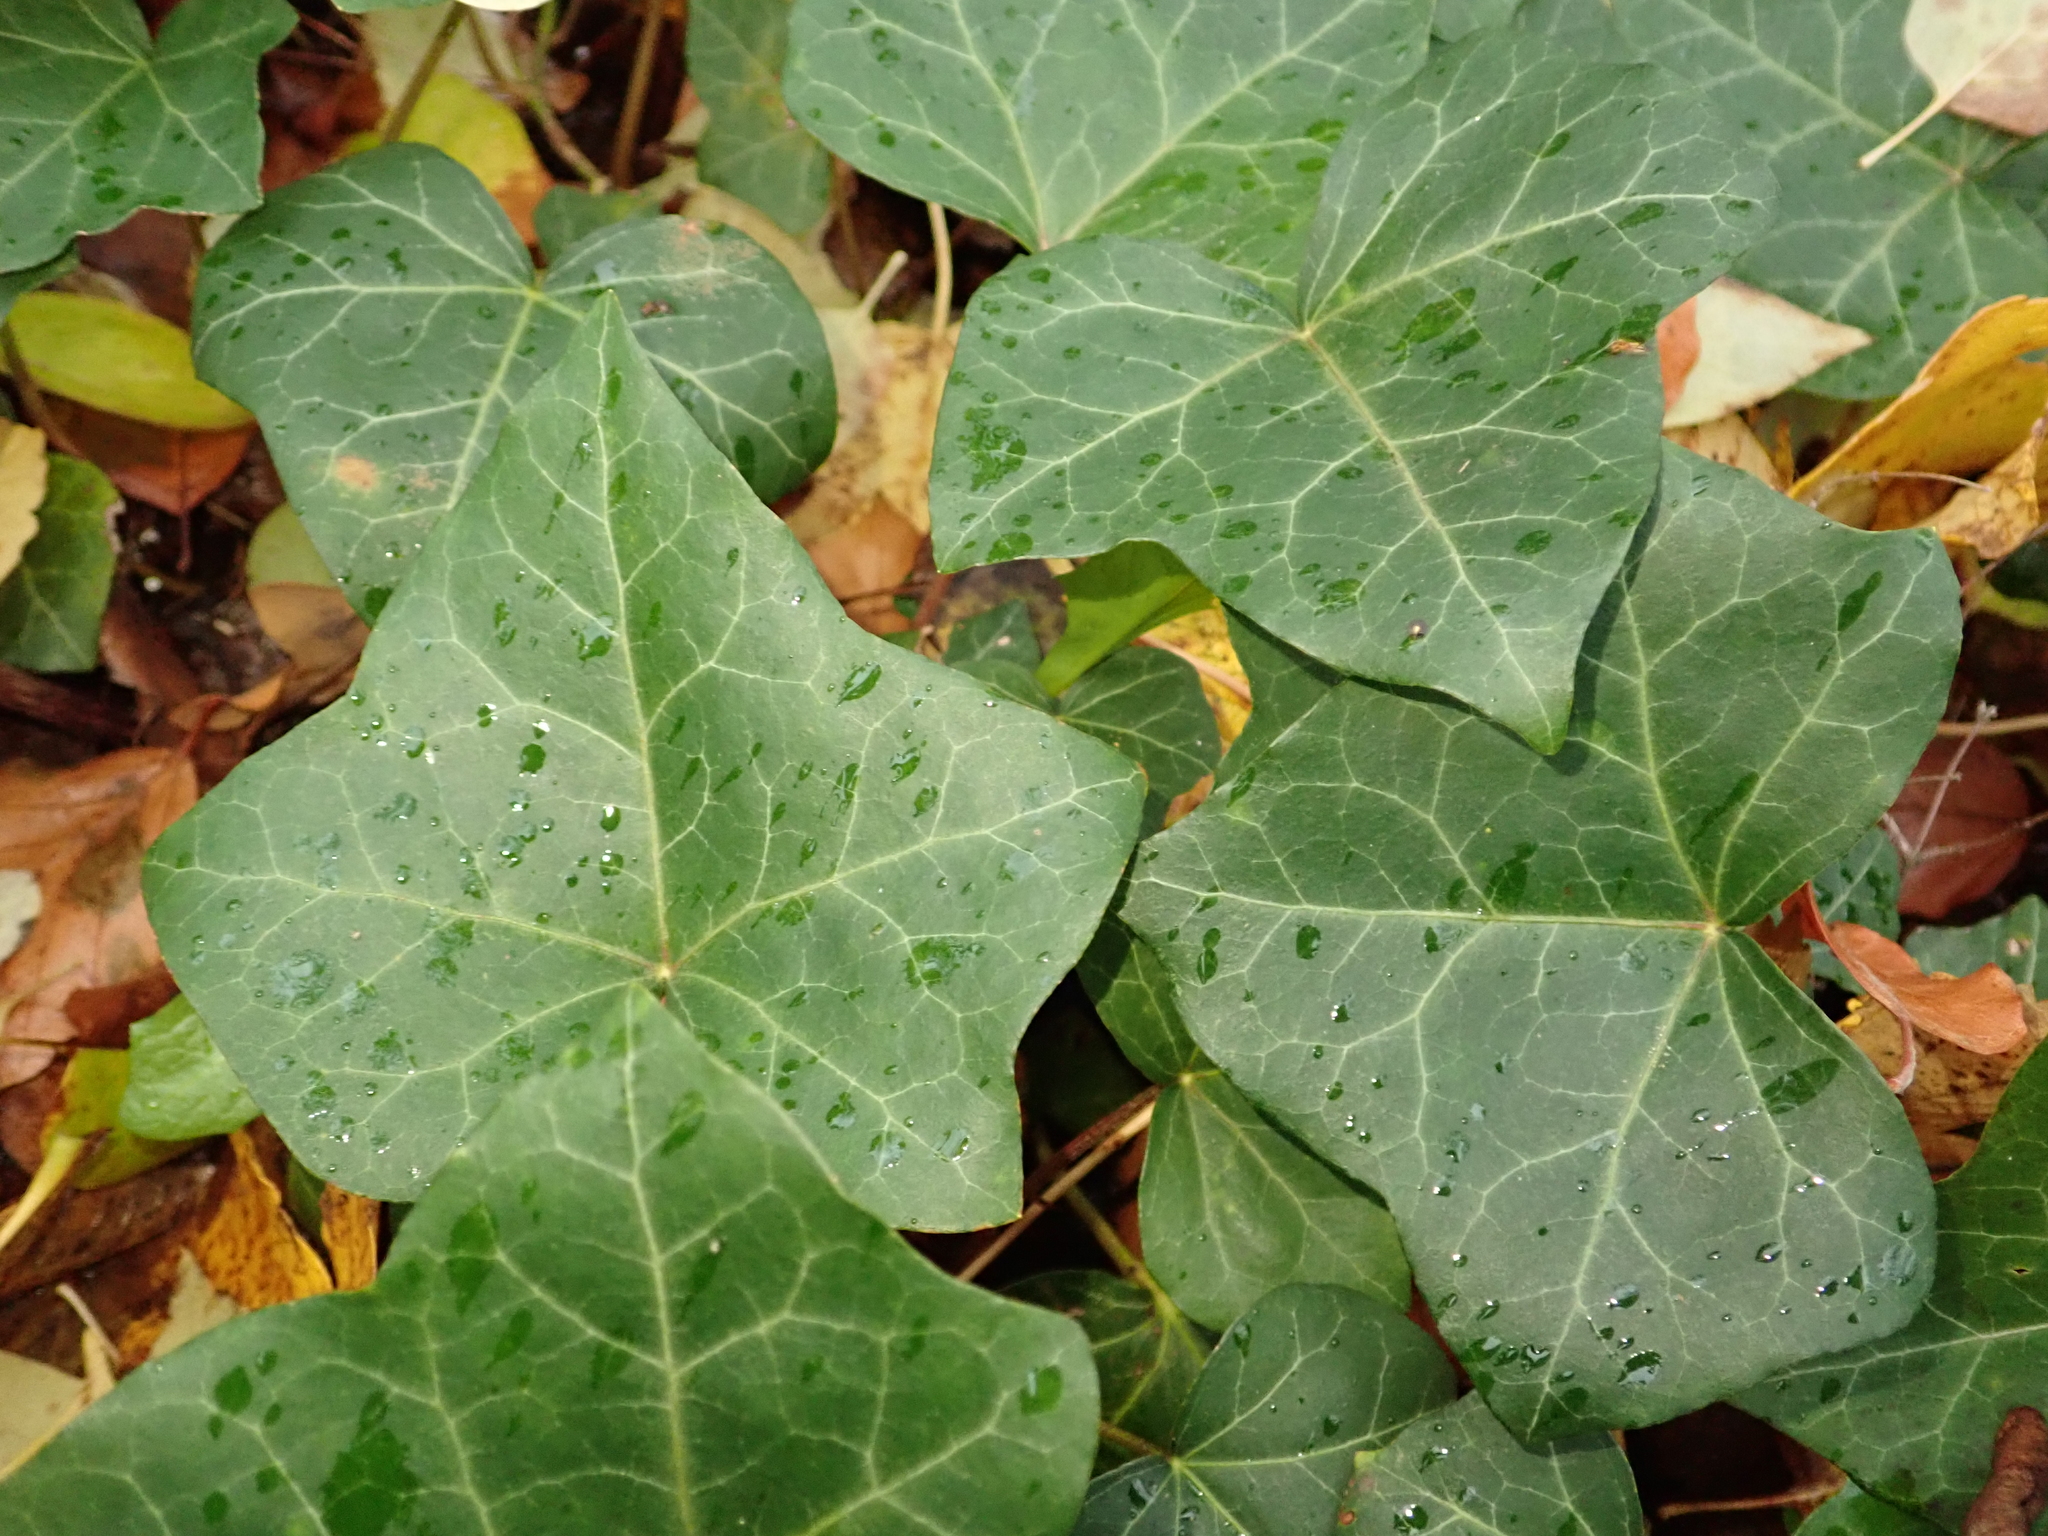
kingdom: Plantae
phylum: Tracheophyta
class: Magnoliopsida
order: Apiales
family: Araliaceae
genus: Hedera
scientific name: Hedera helix
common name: Ivy
